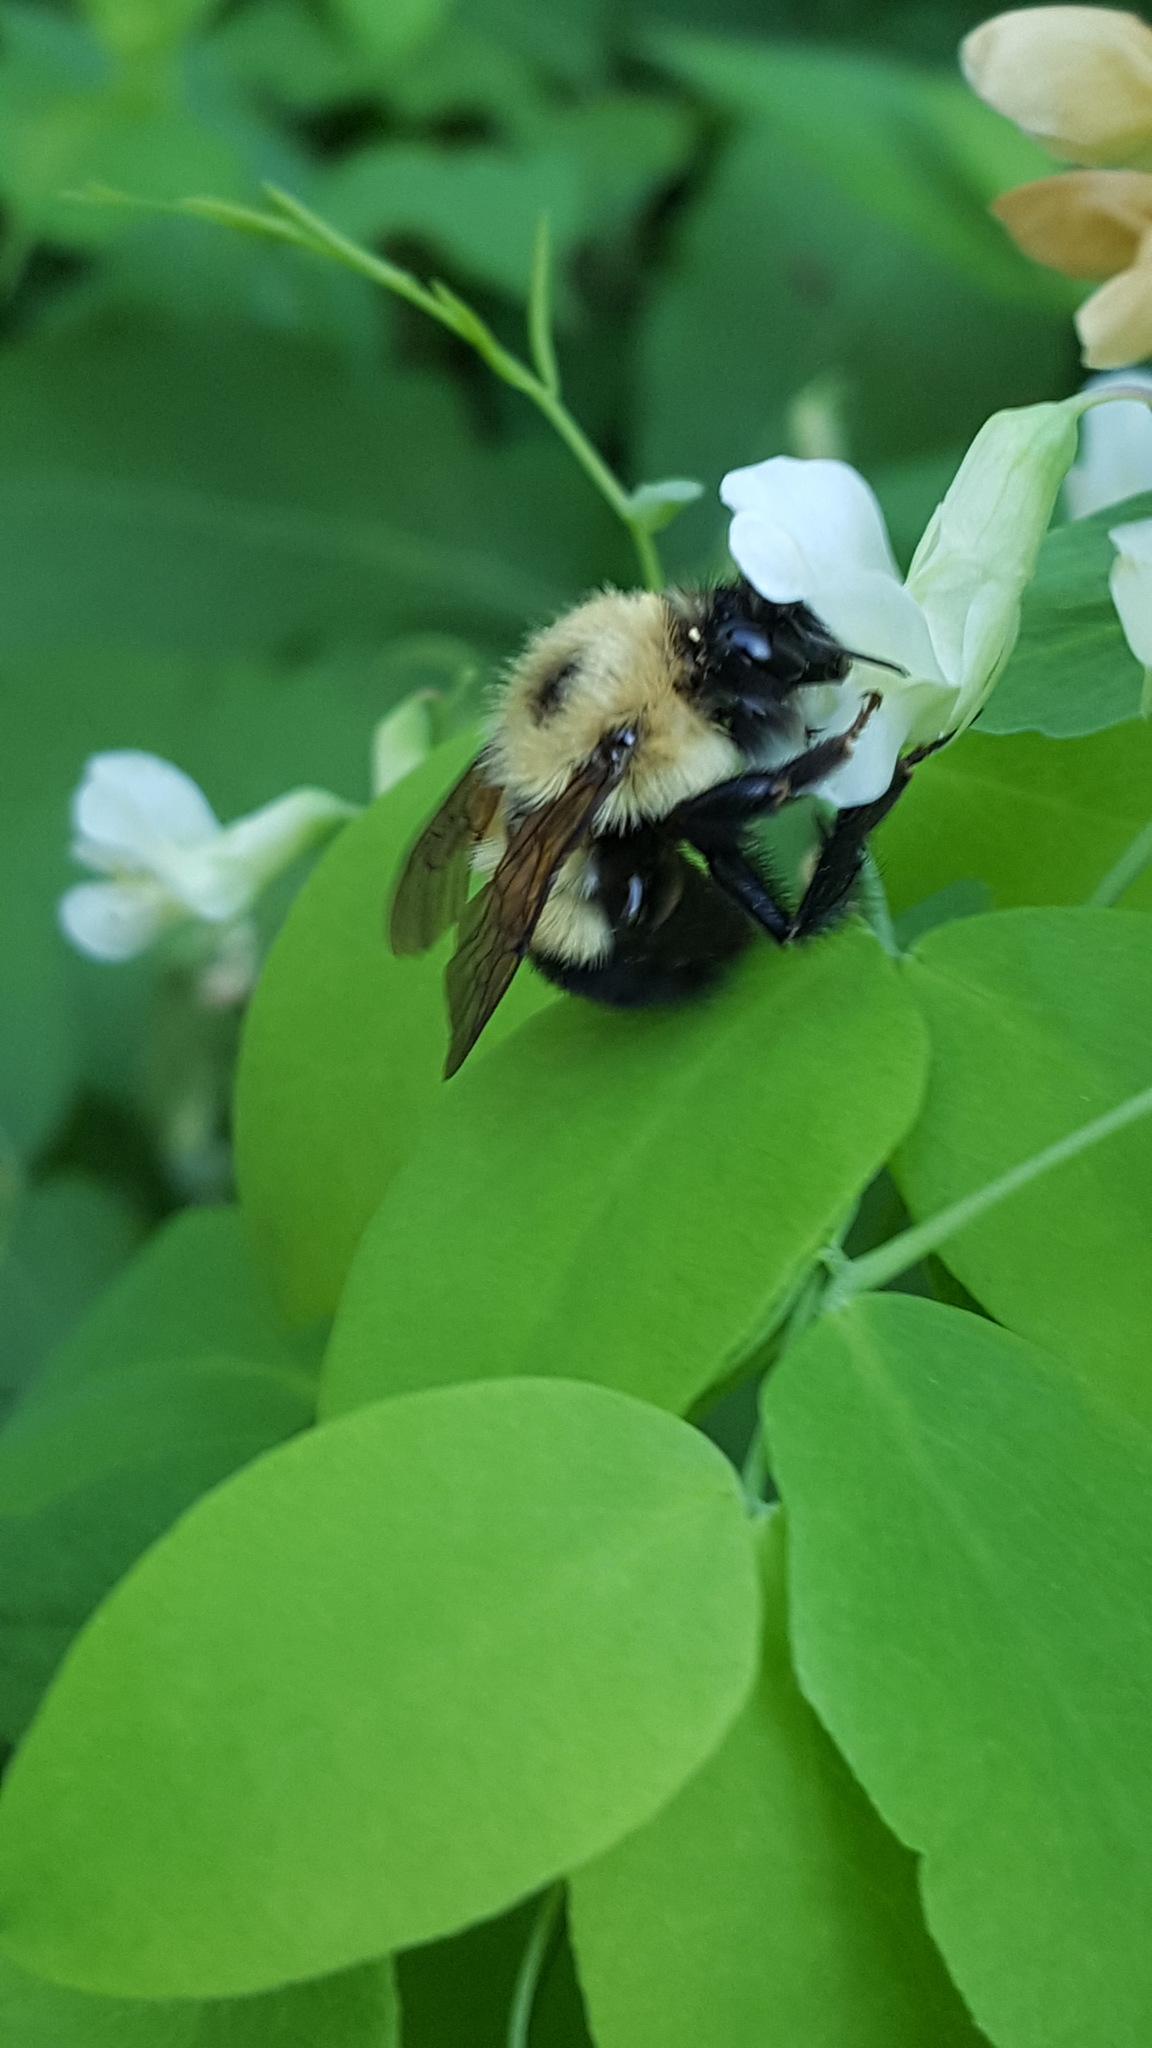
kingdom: Animalia
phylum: Arthropoda
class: Insecta
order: Hymenoptera
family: Apidae
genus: Bombus
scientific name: Bombus vagans
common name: Half-black bumble bee
